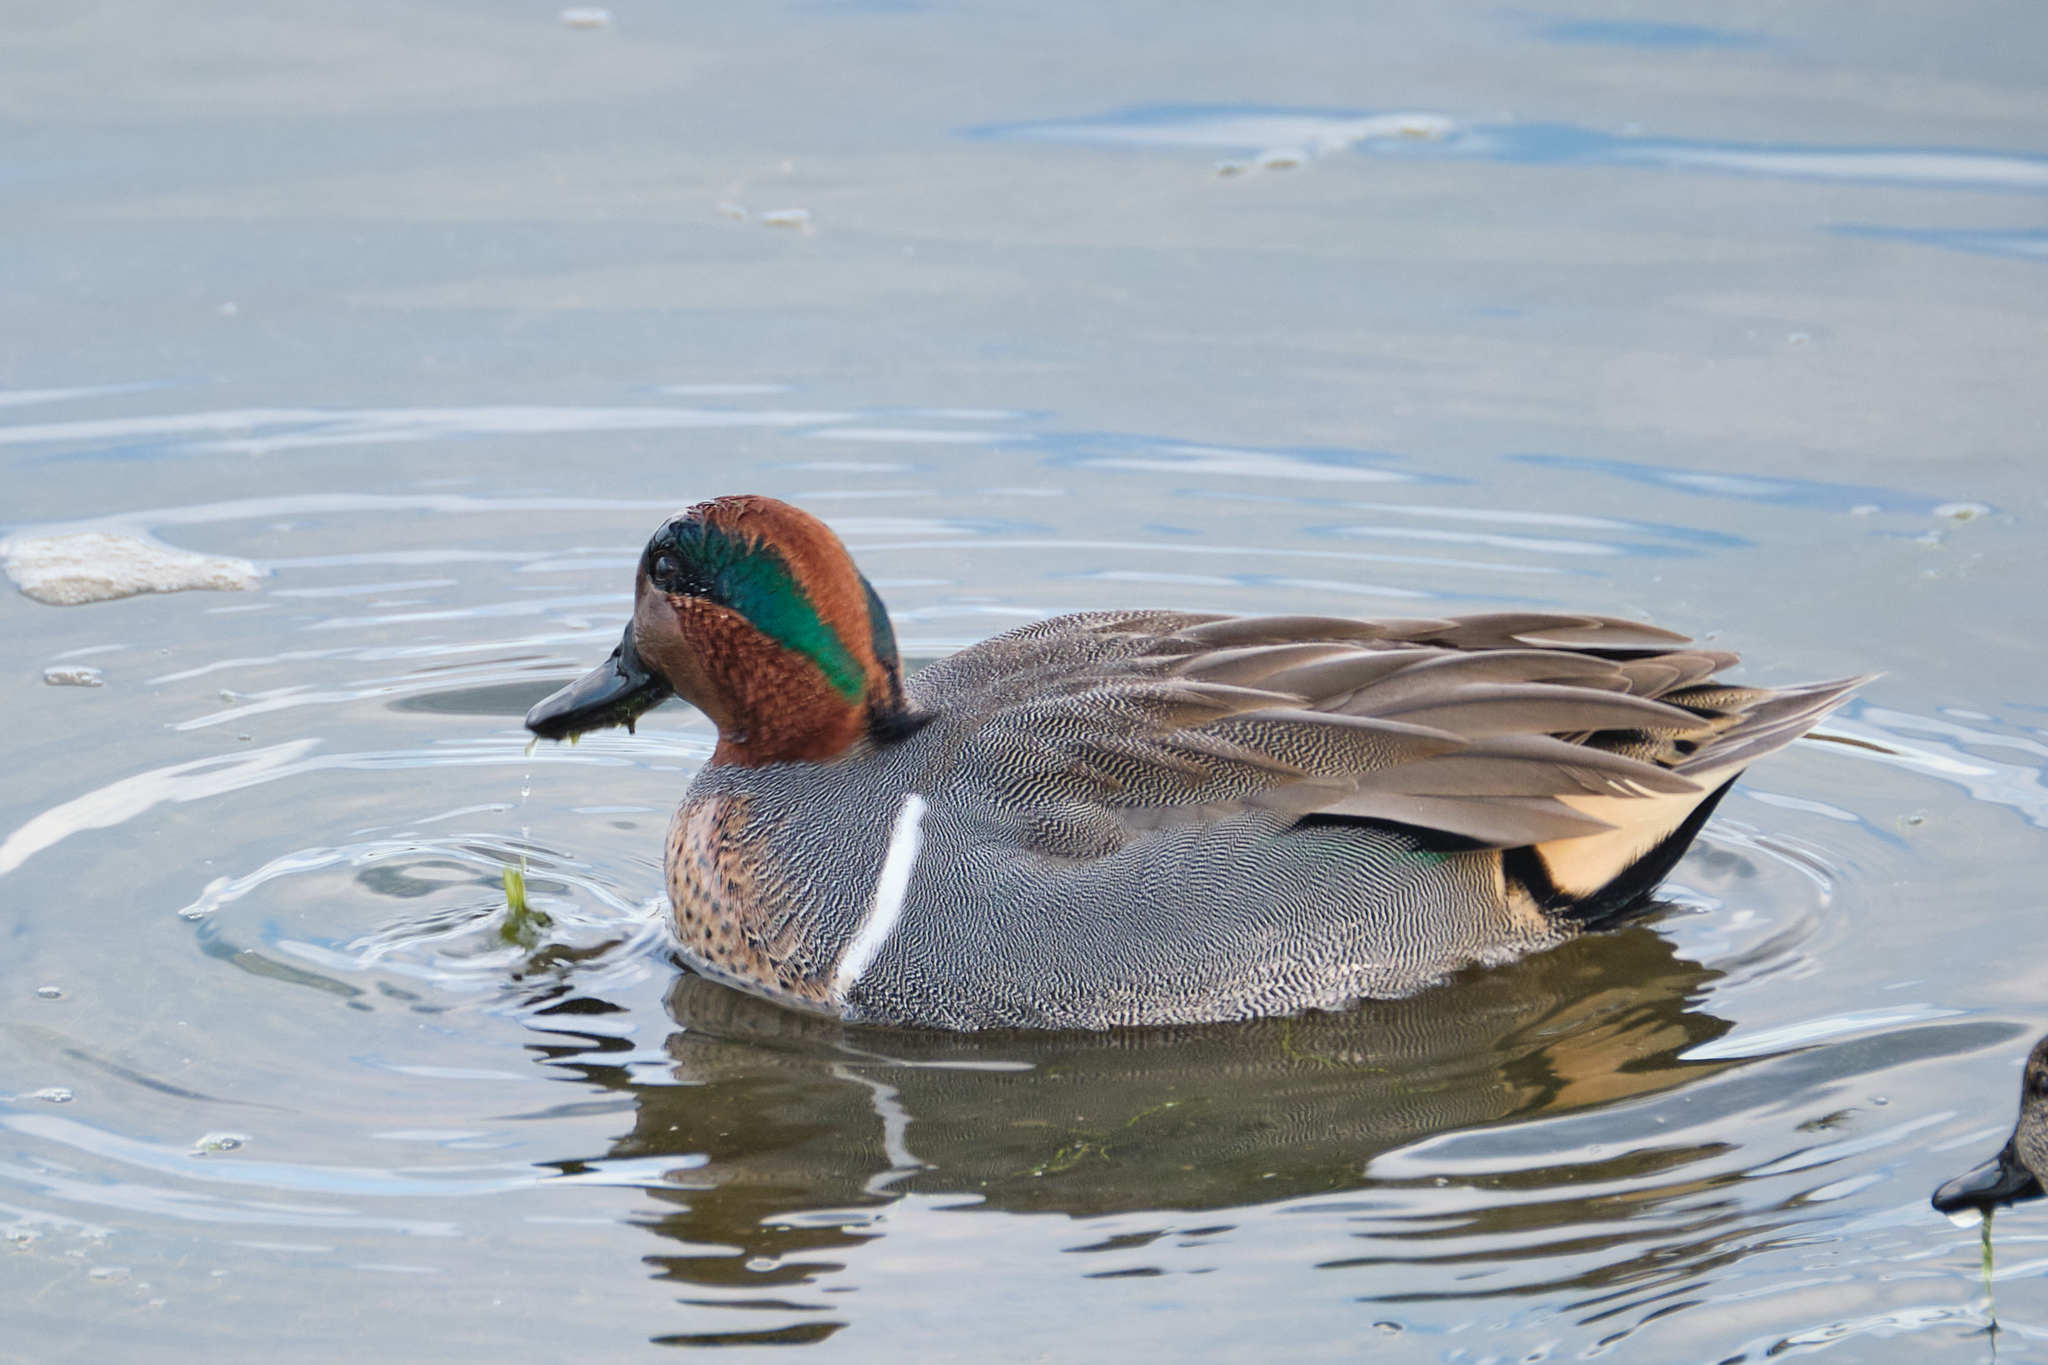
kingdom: Animalia
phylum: Chordata
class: Aves
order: Anseriformes
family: Anatidae
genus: Anas
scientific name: Anas crecca
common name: Eurasian teal
